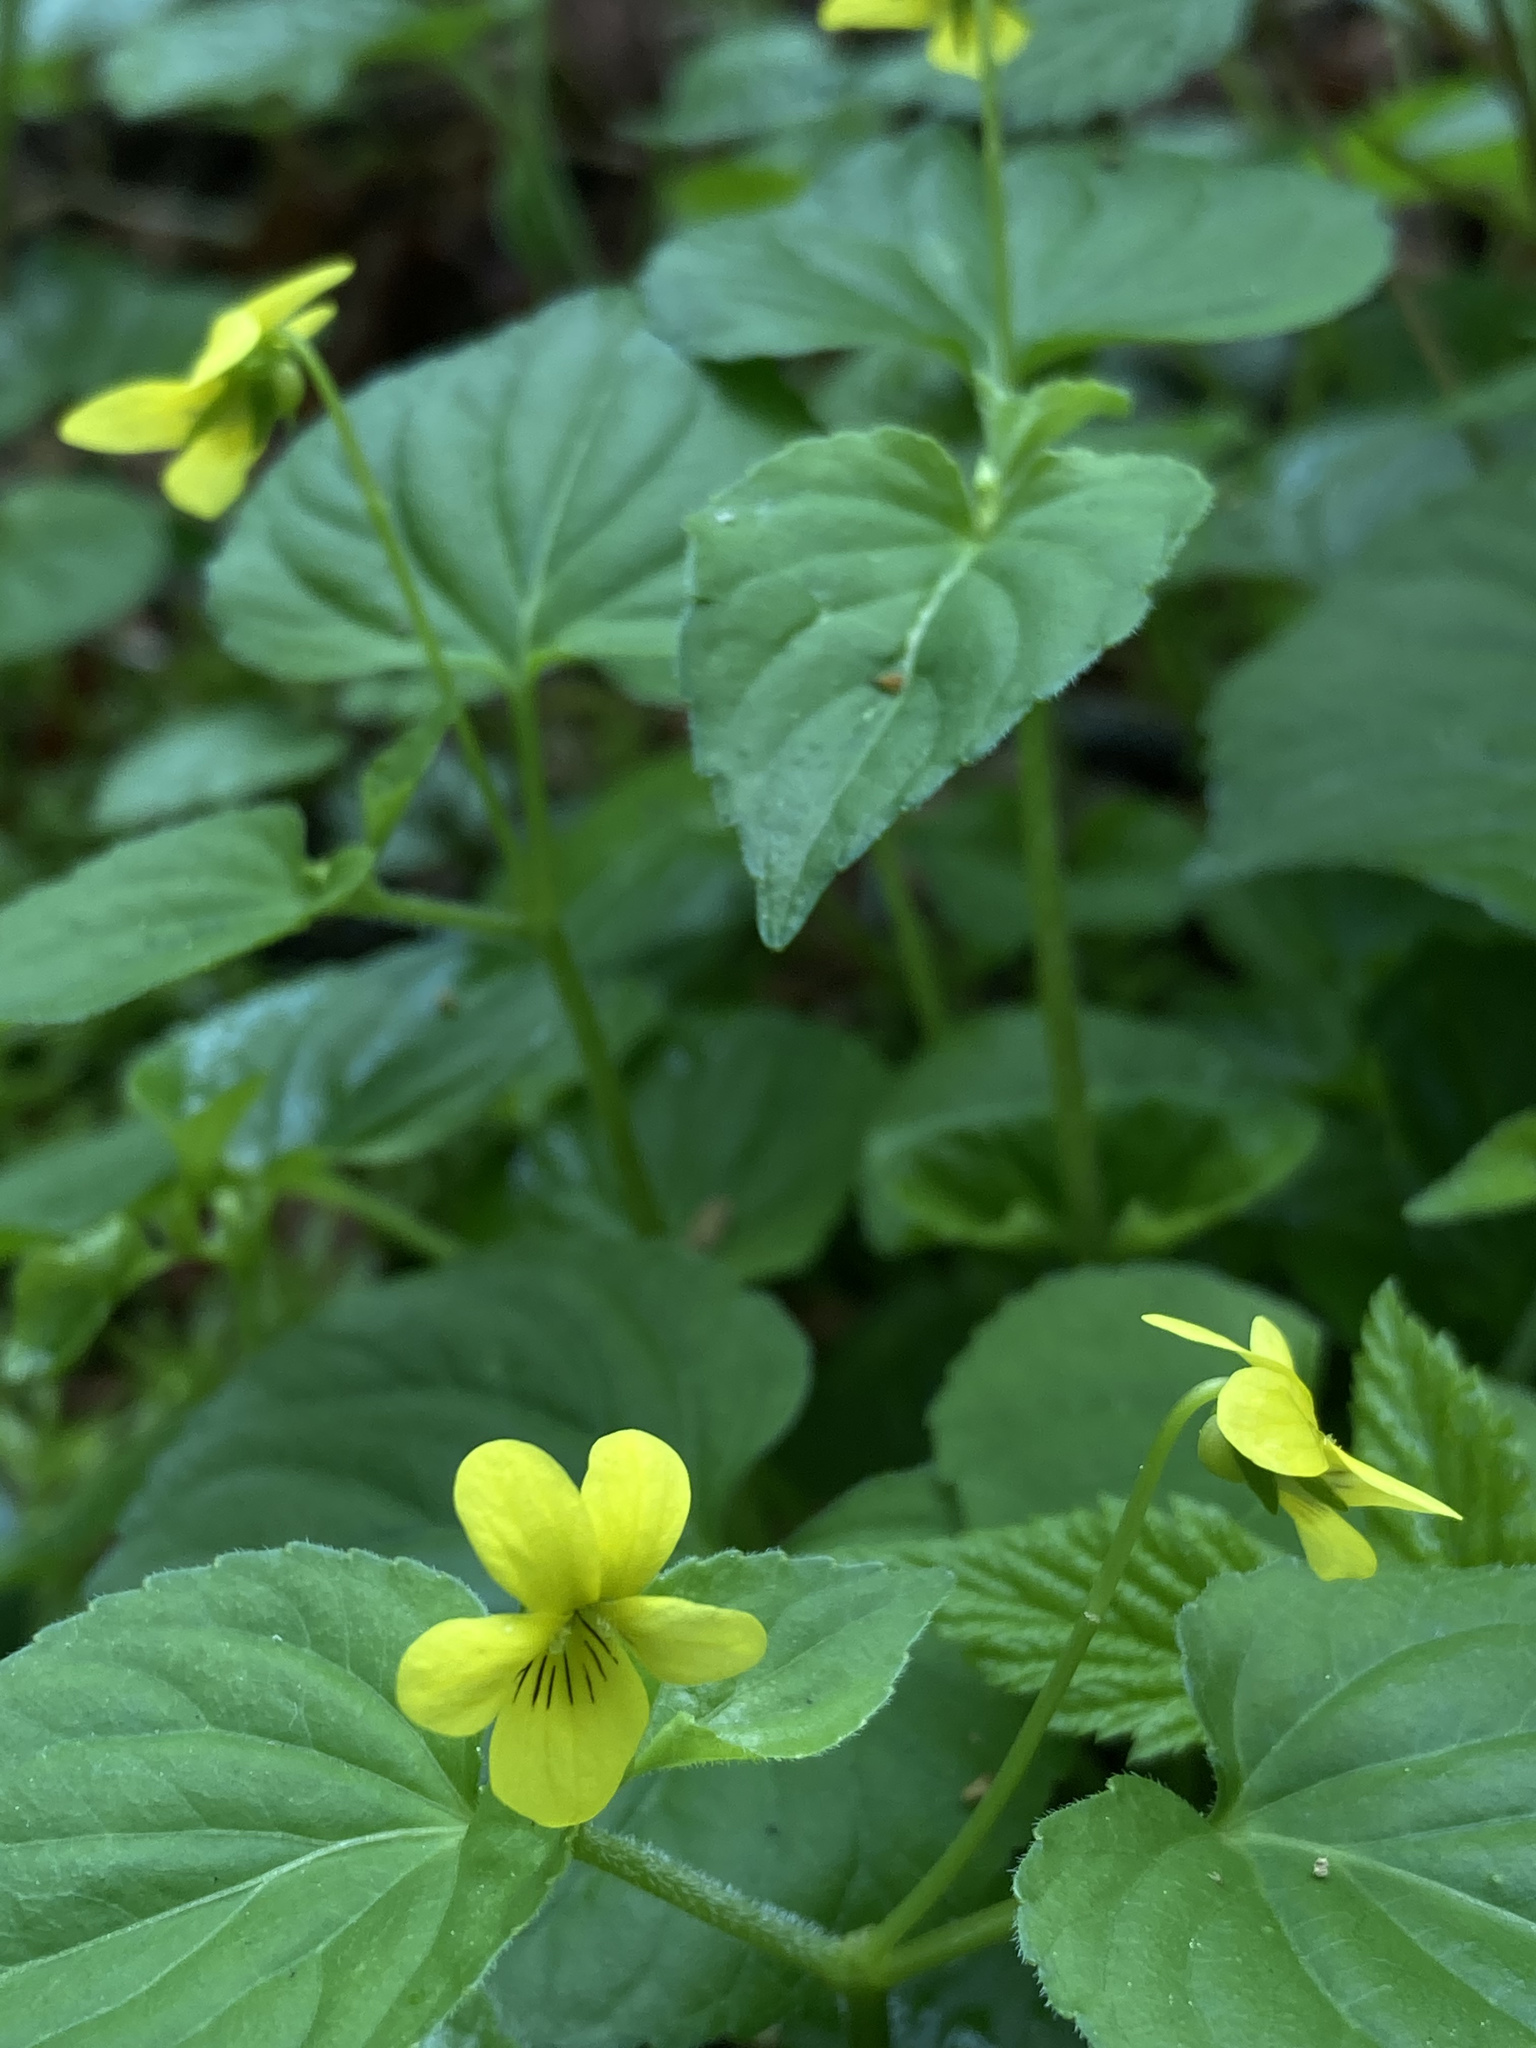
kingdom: Plantae
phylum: Tracheophyta
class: Magnoliopsida
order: Malpighiales
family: Violaceae
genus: Viola
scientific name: Viola glabella
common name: Stream violet
